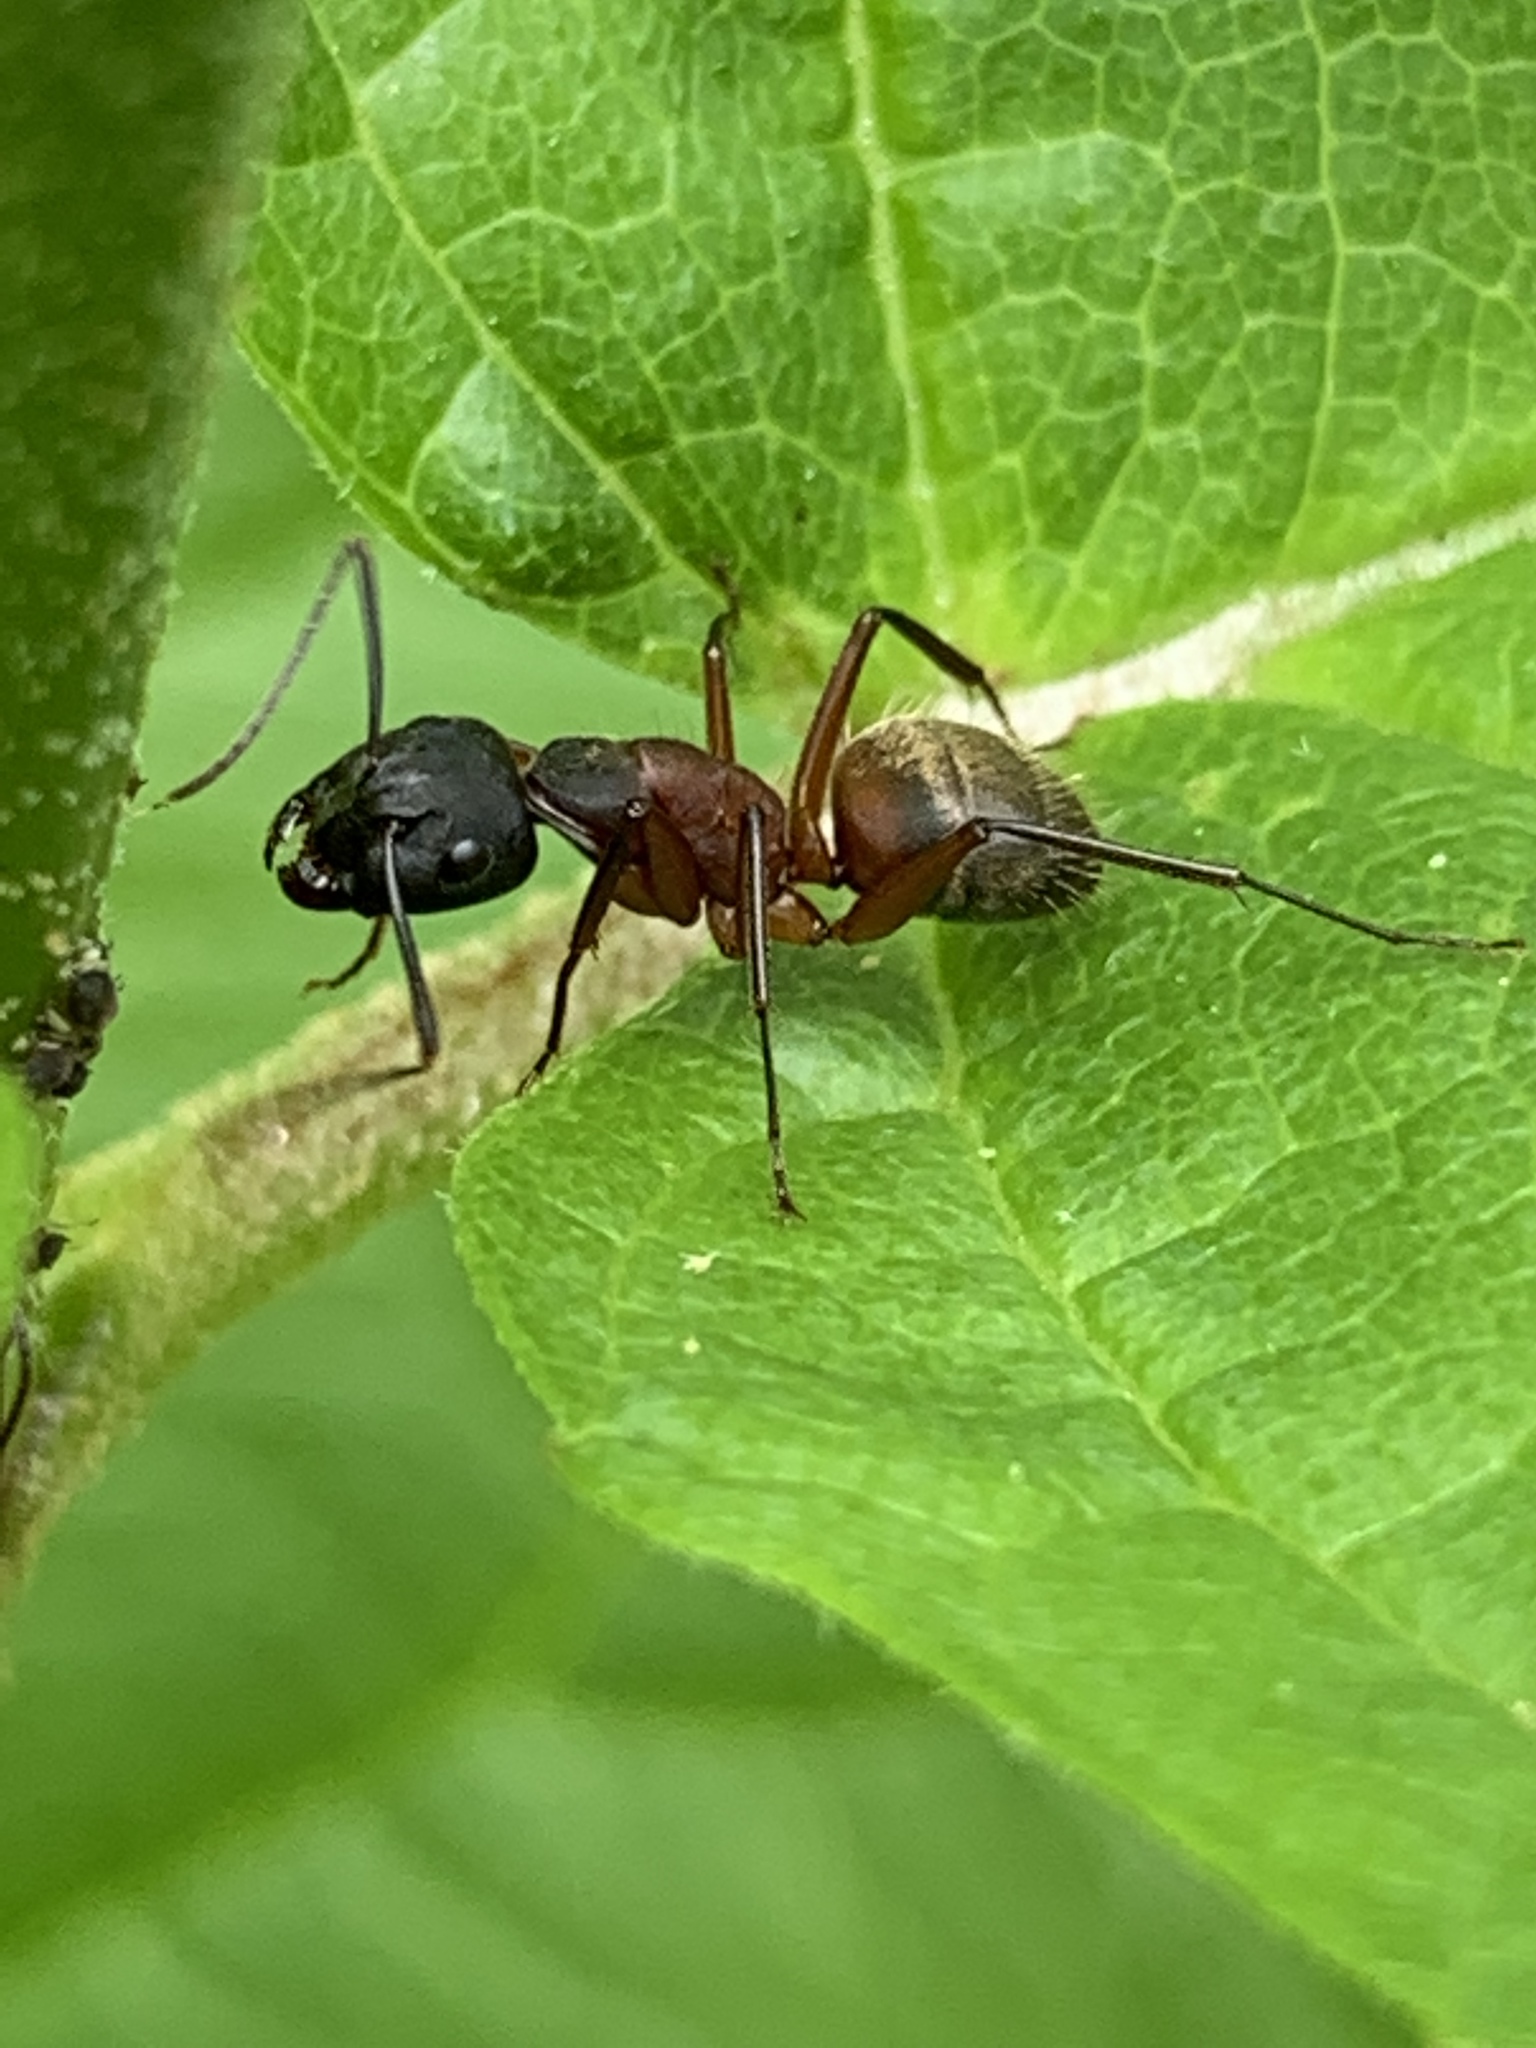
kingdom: Animalia
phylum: Arthropoda
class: Insecta
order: Hymenoptera
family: Formicidae
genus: Camponotus
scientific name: Camponotus chromaiodes
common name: Red carpenter ant
